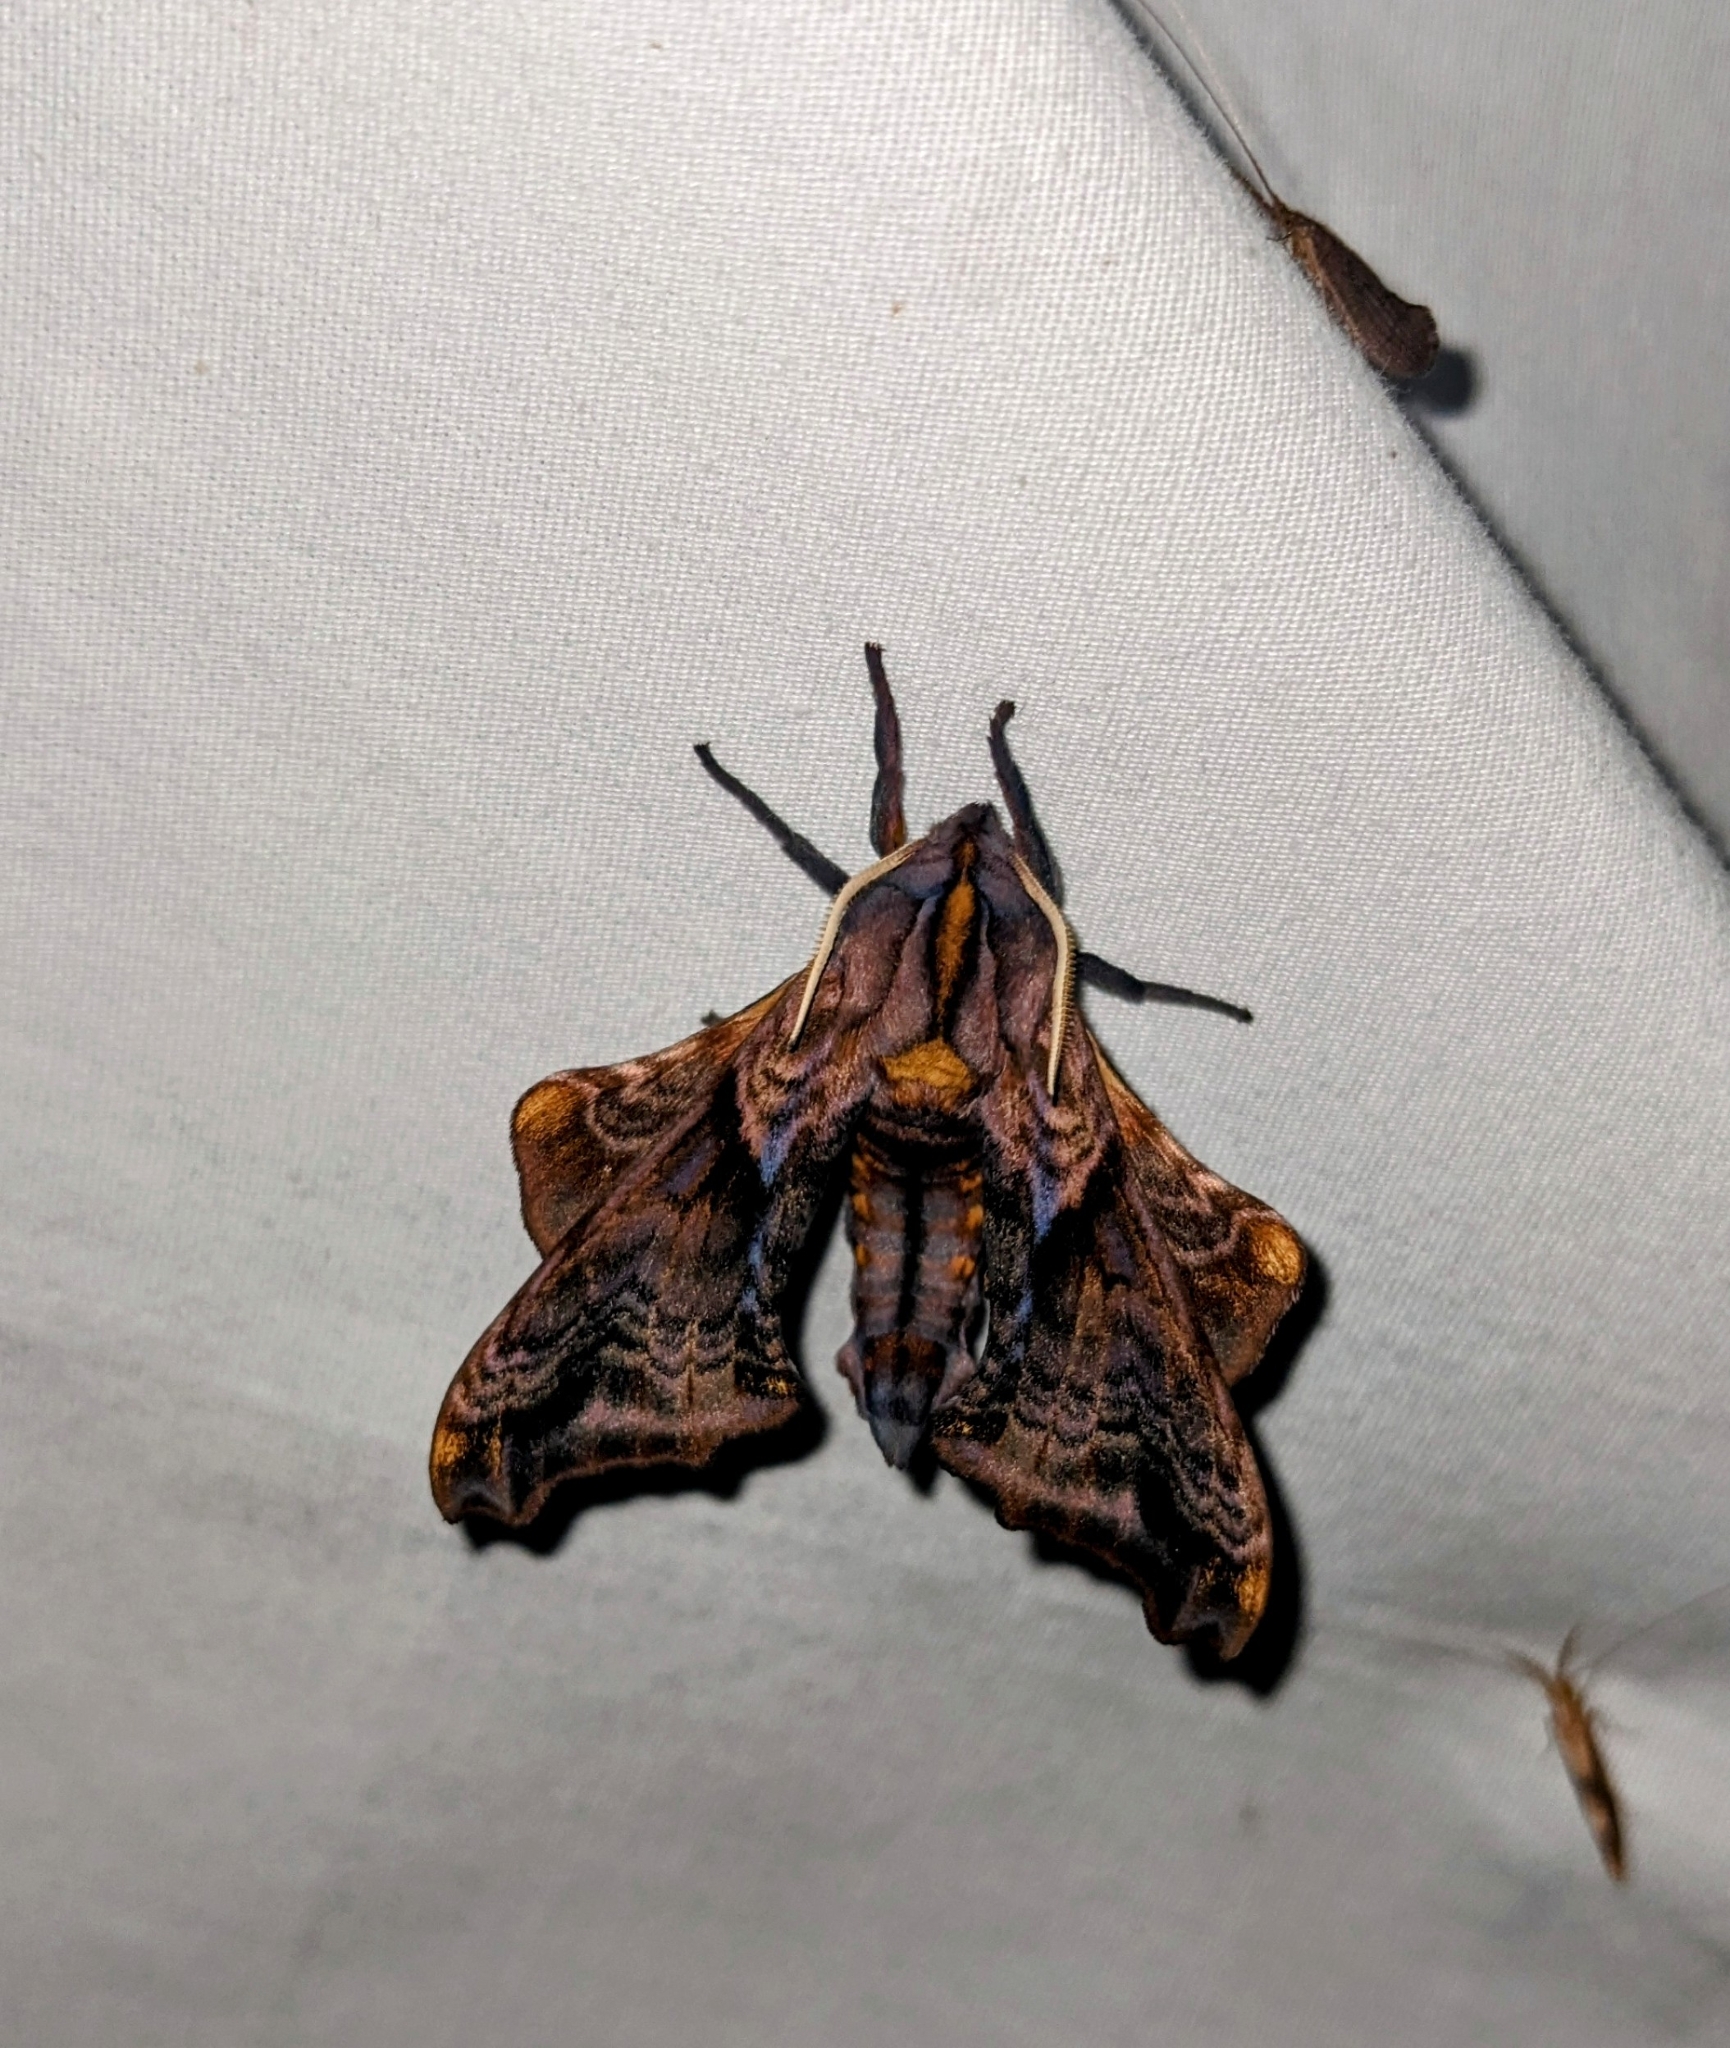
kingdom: Animalia
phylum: Arthropoda
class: Insecta
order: Lepidoptera
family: Sphingidae
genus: Paonias
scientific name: Paonias myops
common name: Small-eyed sphinx
